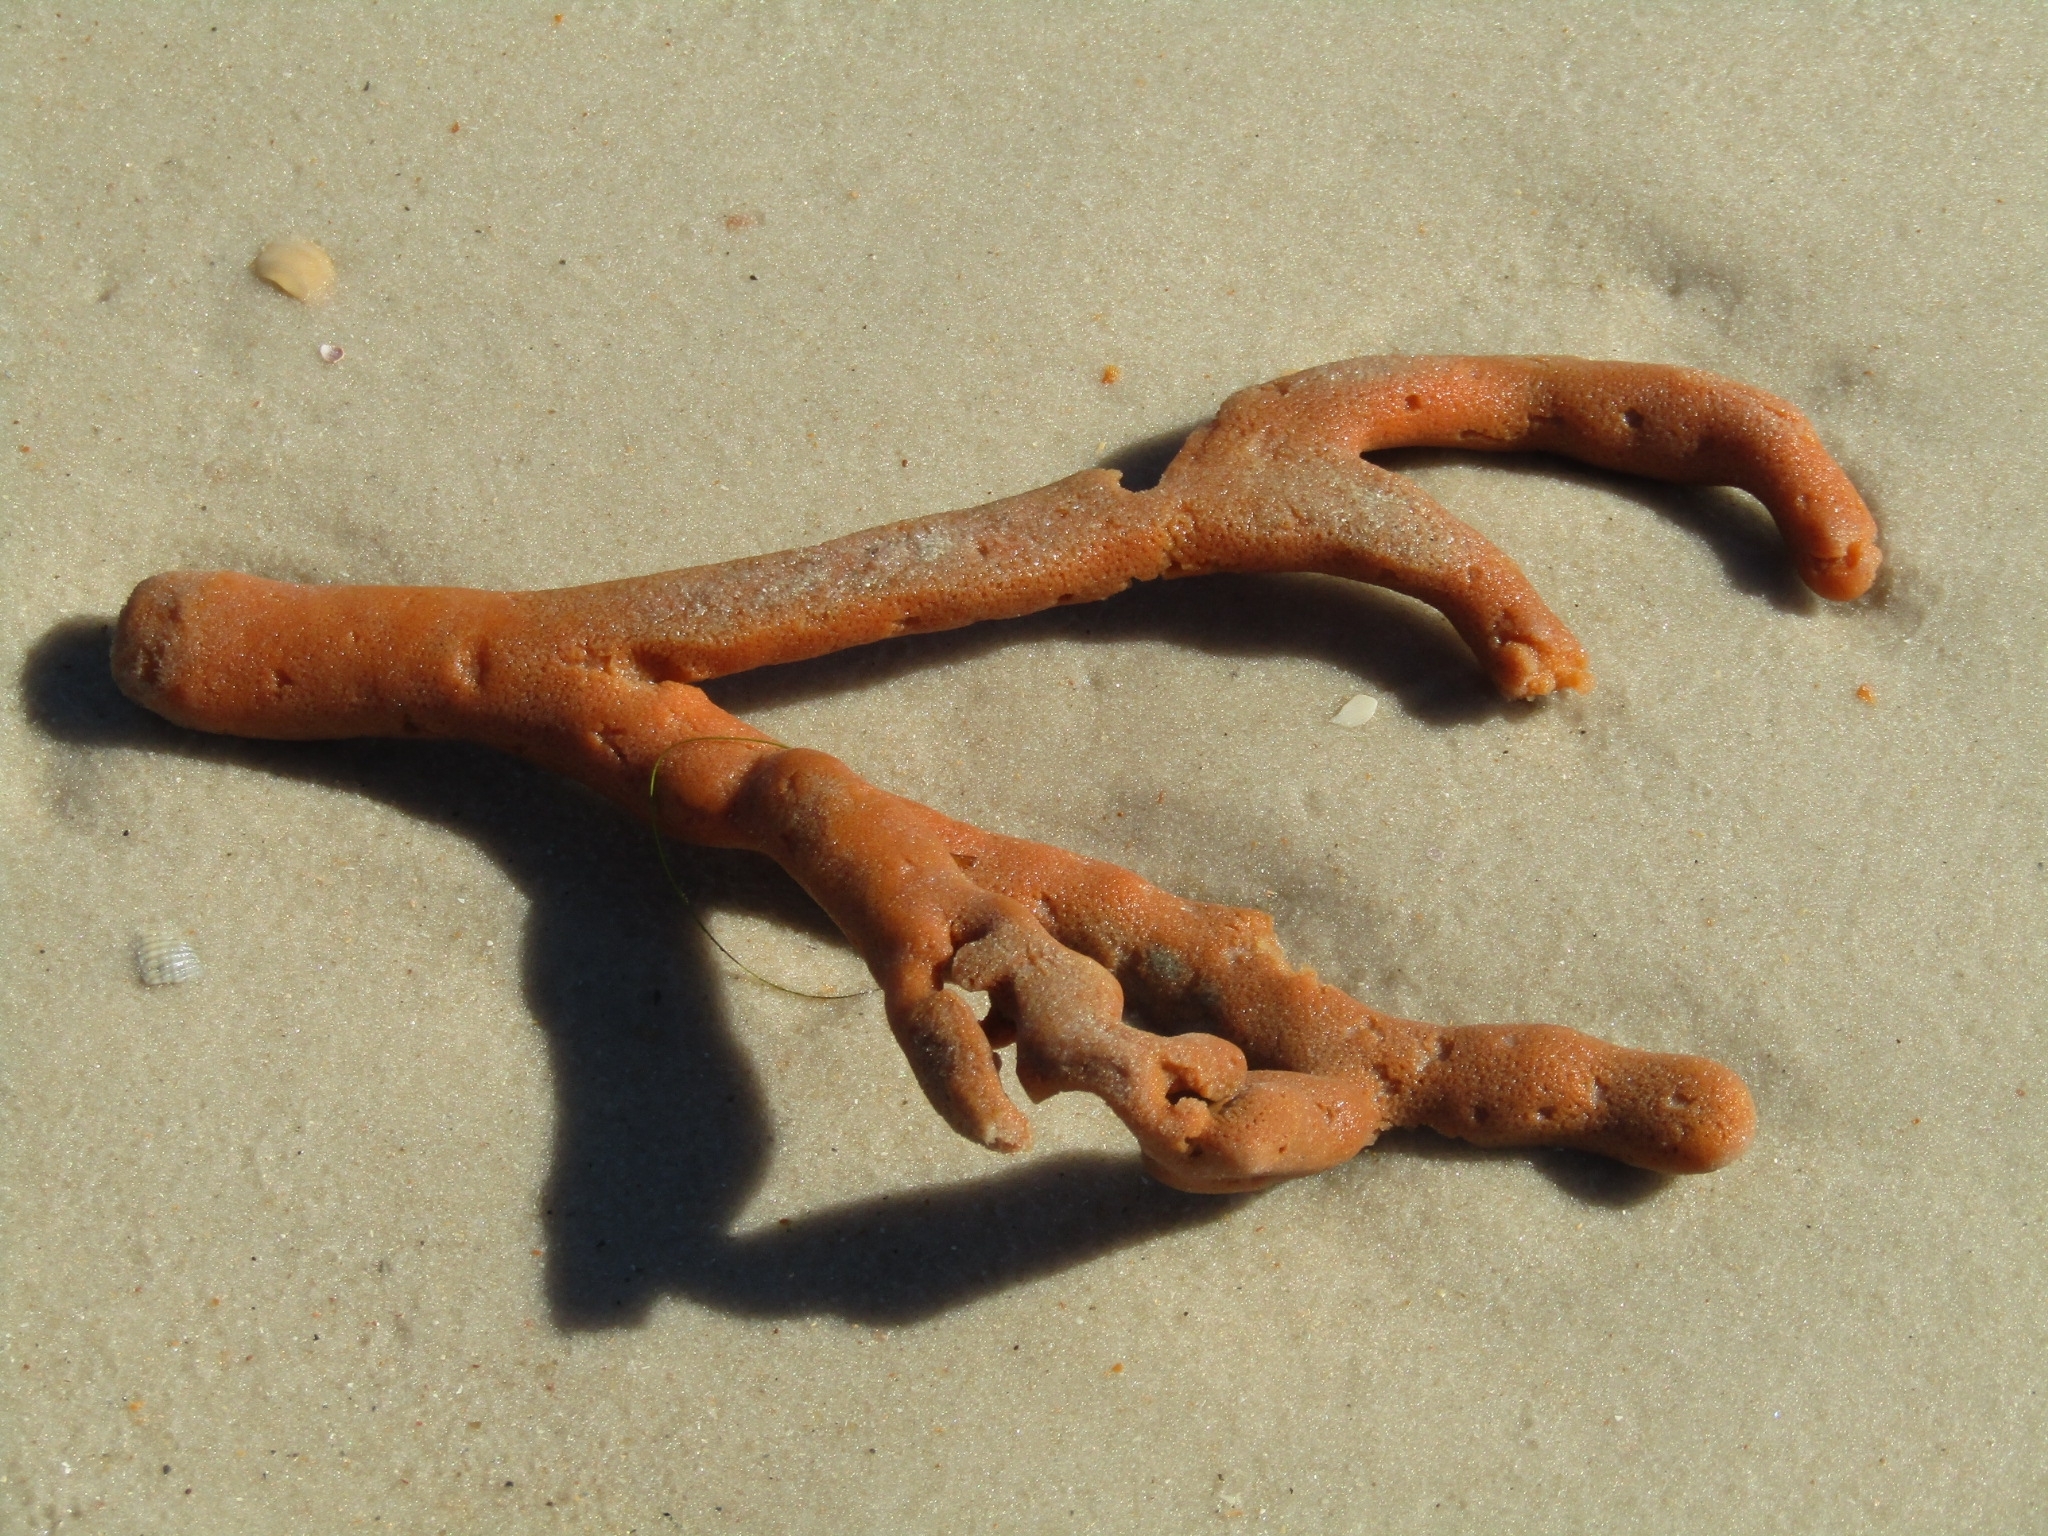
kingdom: Animalia
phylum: Porifera
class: Demospongiae
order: Axinellida
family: Axinellidae
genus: Axinella
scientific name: Axinella polycapella
